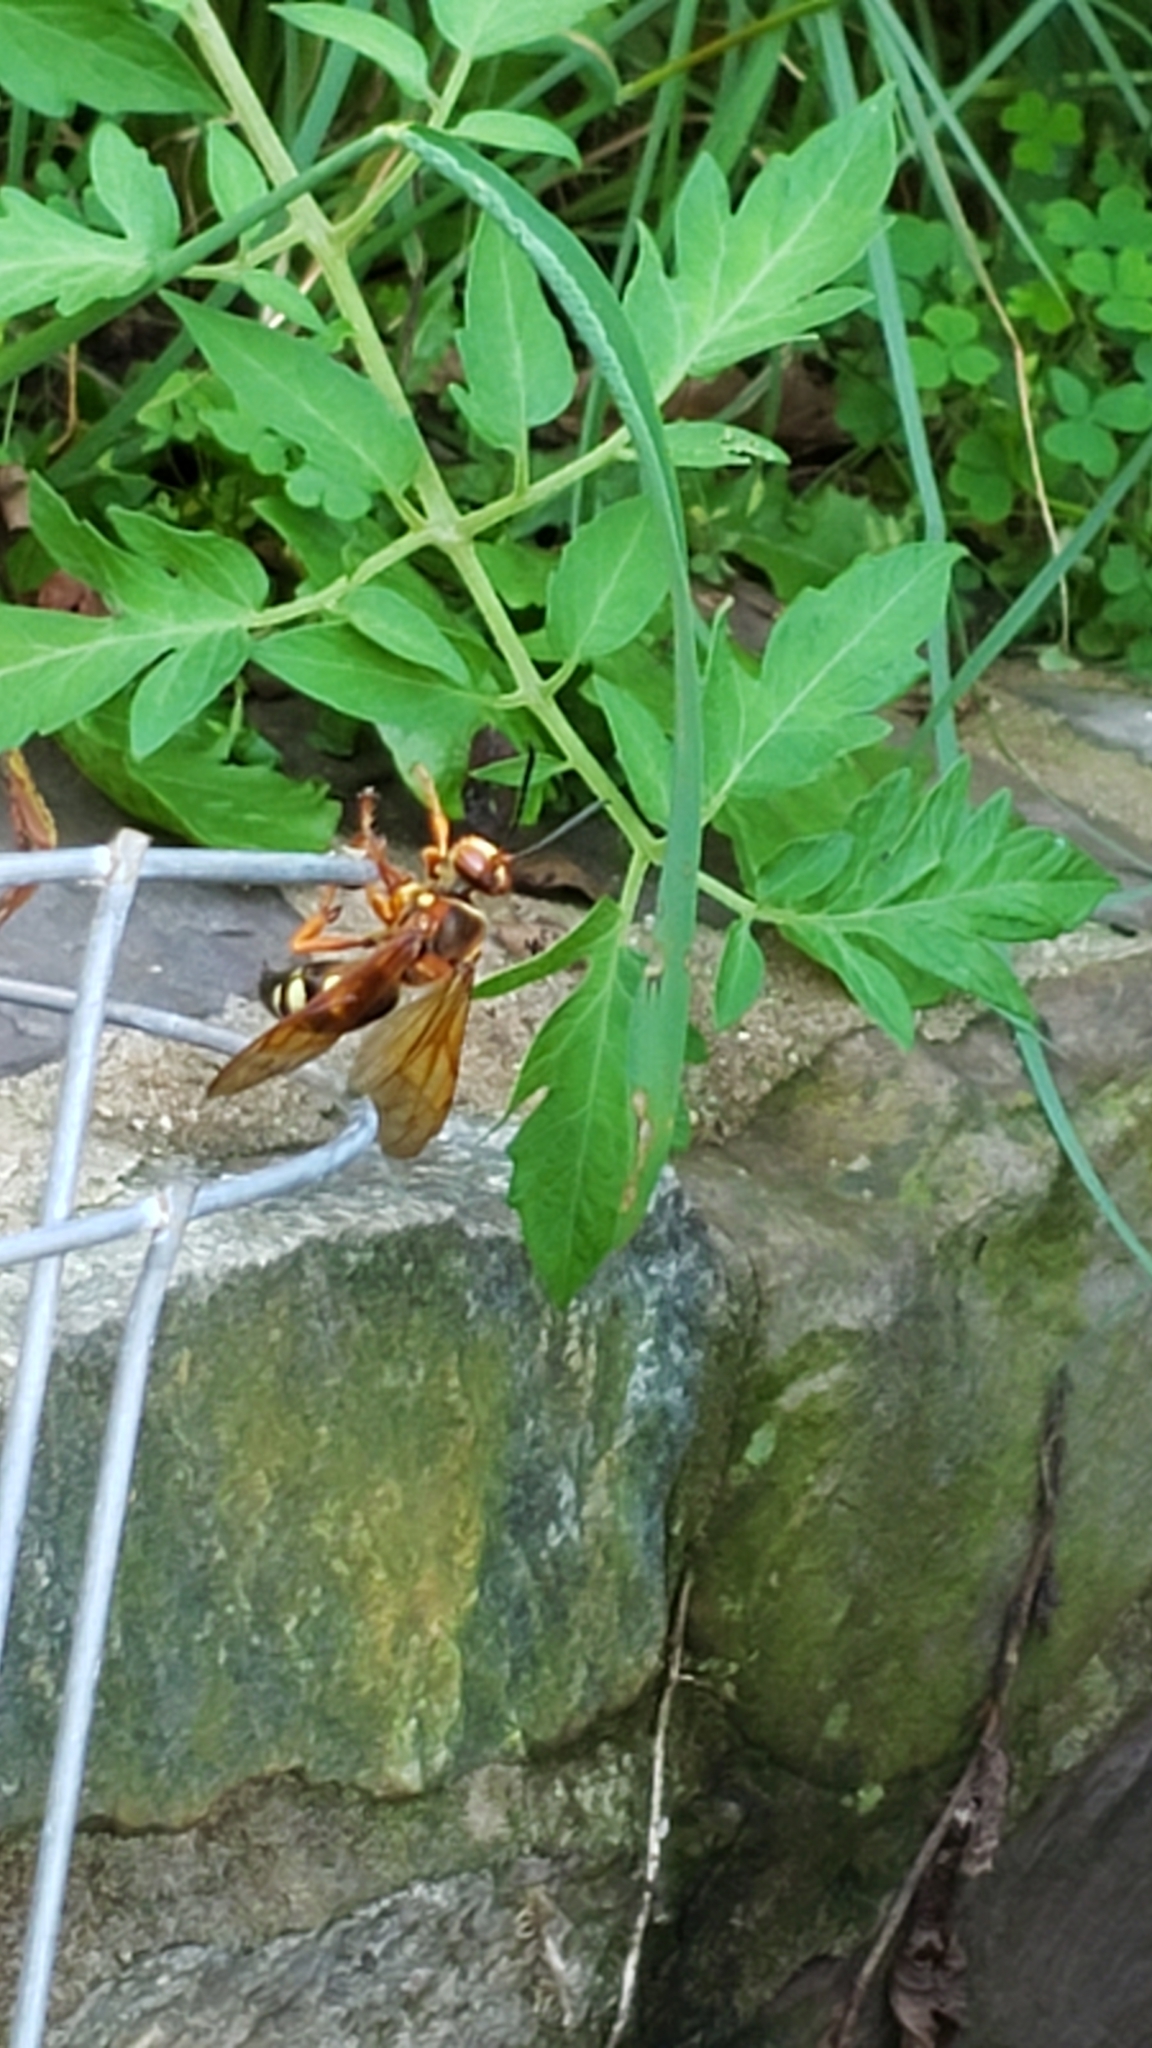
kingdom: Animalia
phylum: Arthropoda
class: Insecta
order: Hymenoptera
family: Crabronidae
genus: Sphecius
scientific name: Sphecius speciosus
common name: Cicada killer
